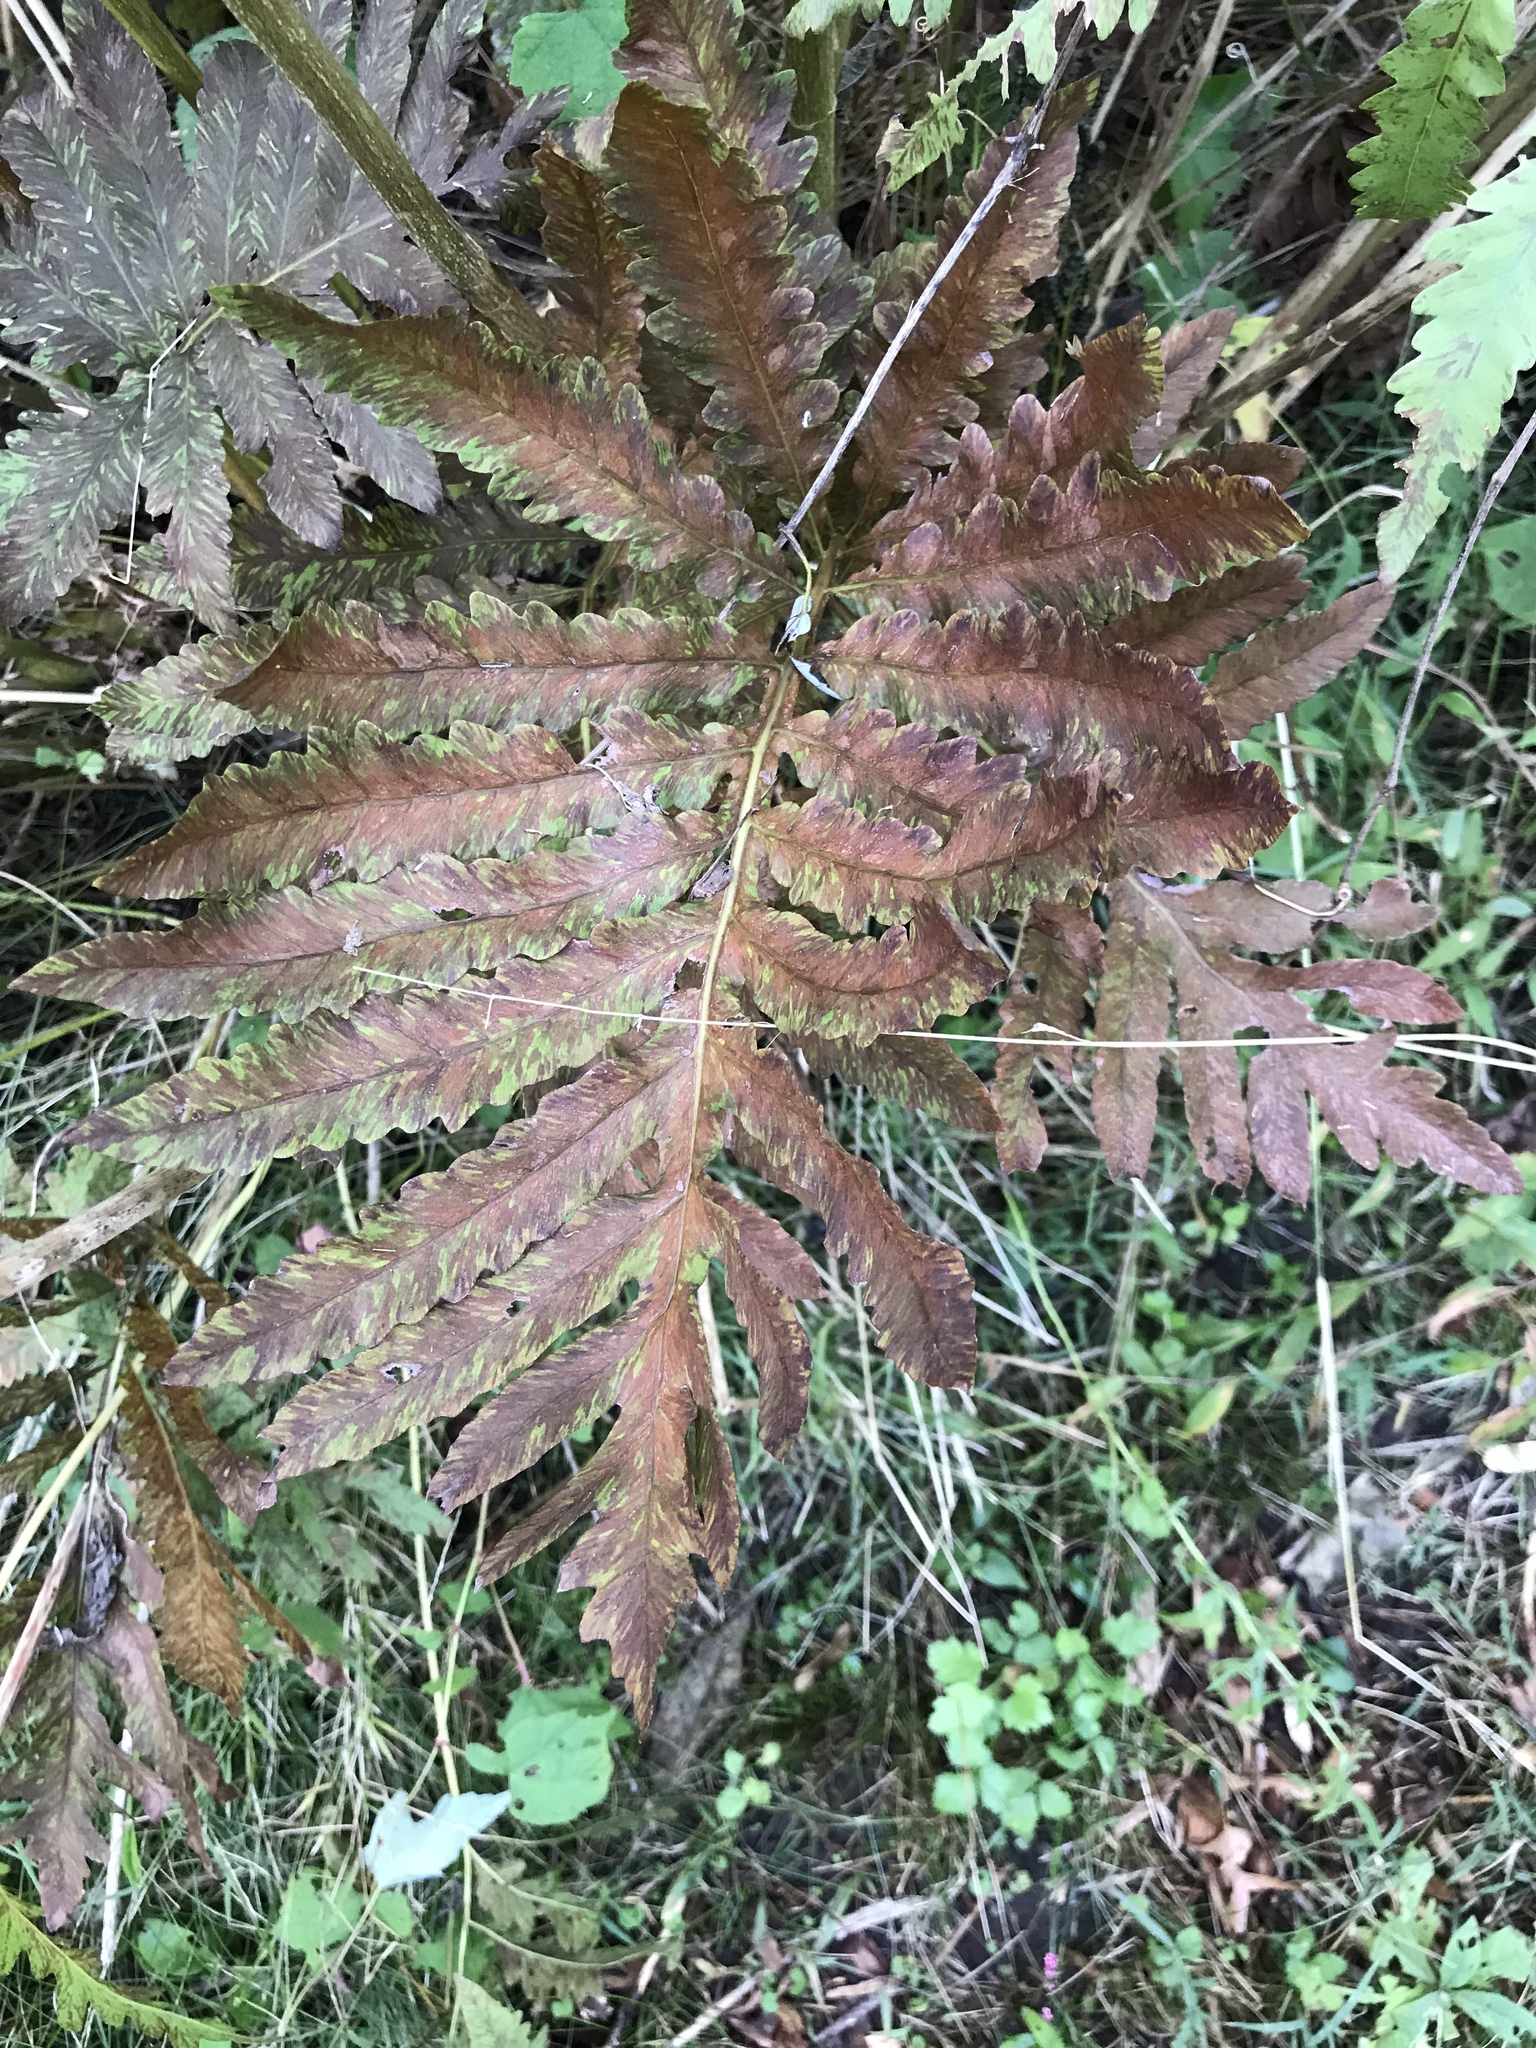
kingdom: Plantae
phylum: Tracheophyta
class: Polypodiopsida
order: Polypodiales
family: Onocleaceae
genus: Onoclea
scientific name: Onoclea sensibilis
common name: Sensitive fern
